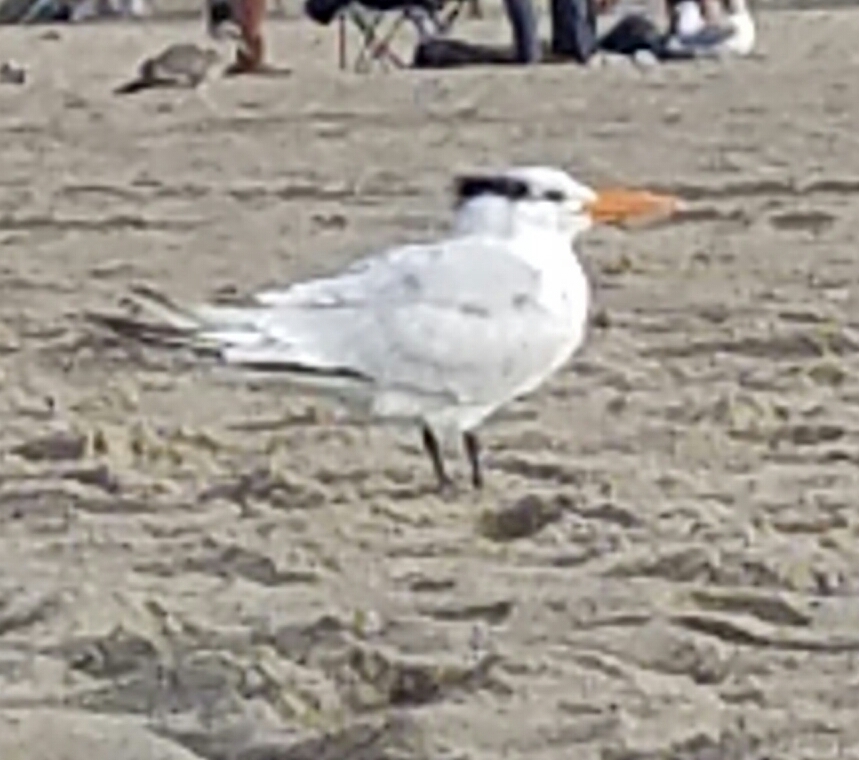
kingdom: Animalia
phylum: Chordata
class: Aves
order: Charadriiformes
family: Laridae
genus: Thalasseus
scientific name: Thalasseus maximus
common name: Royal tern
